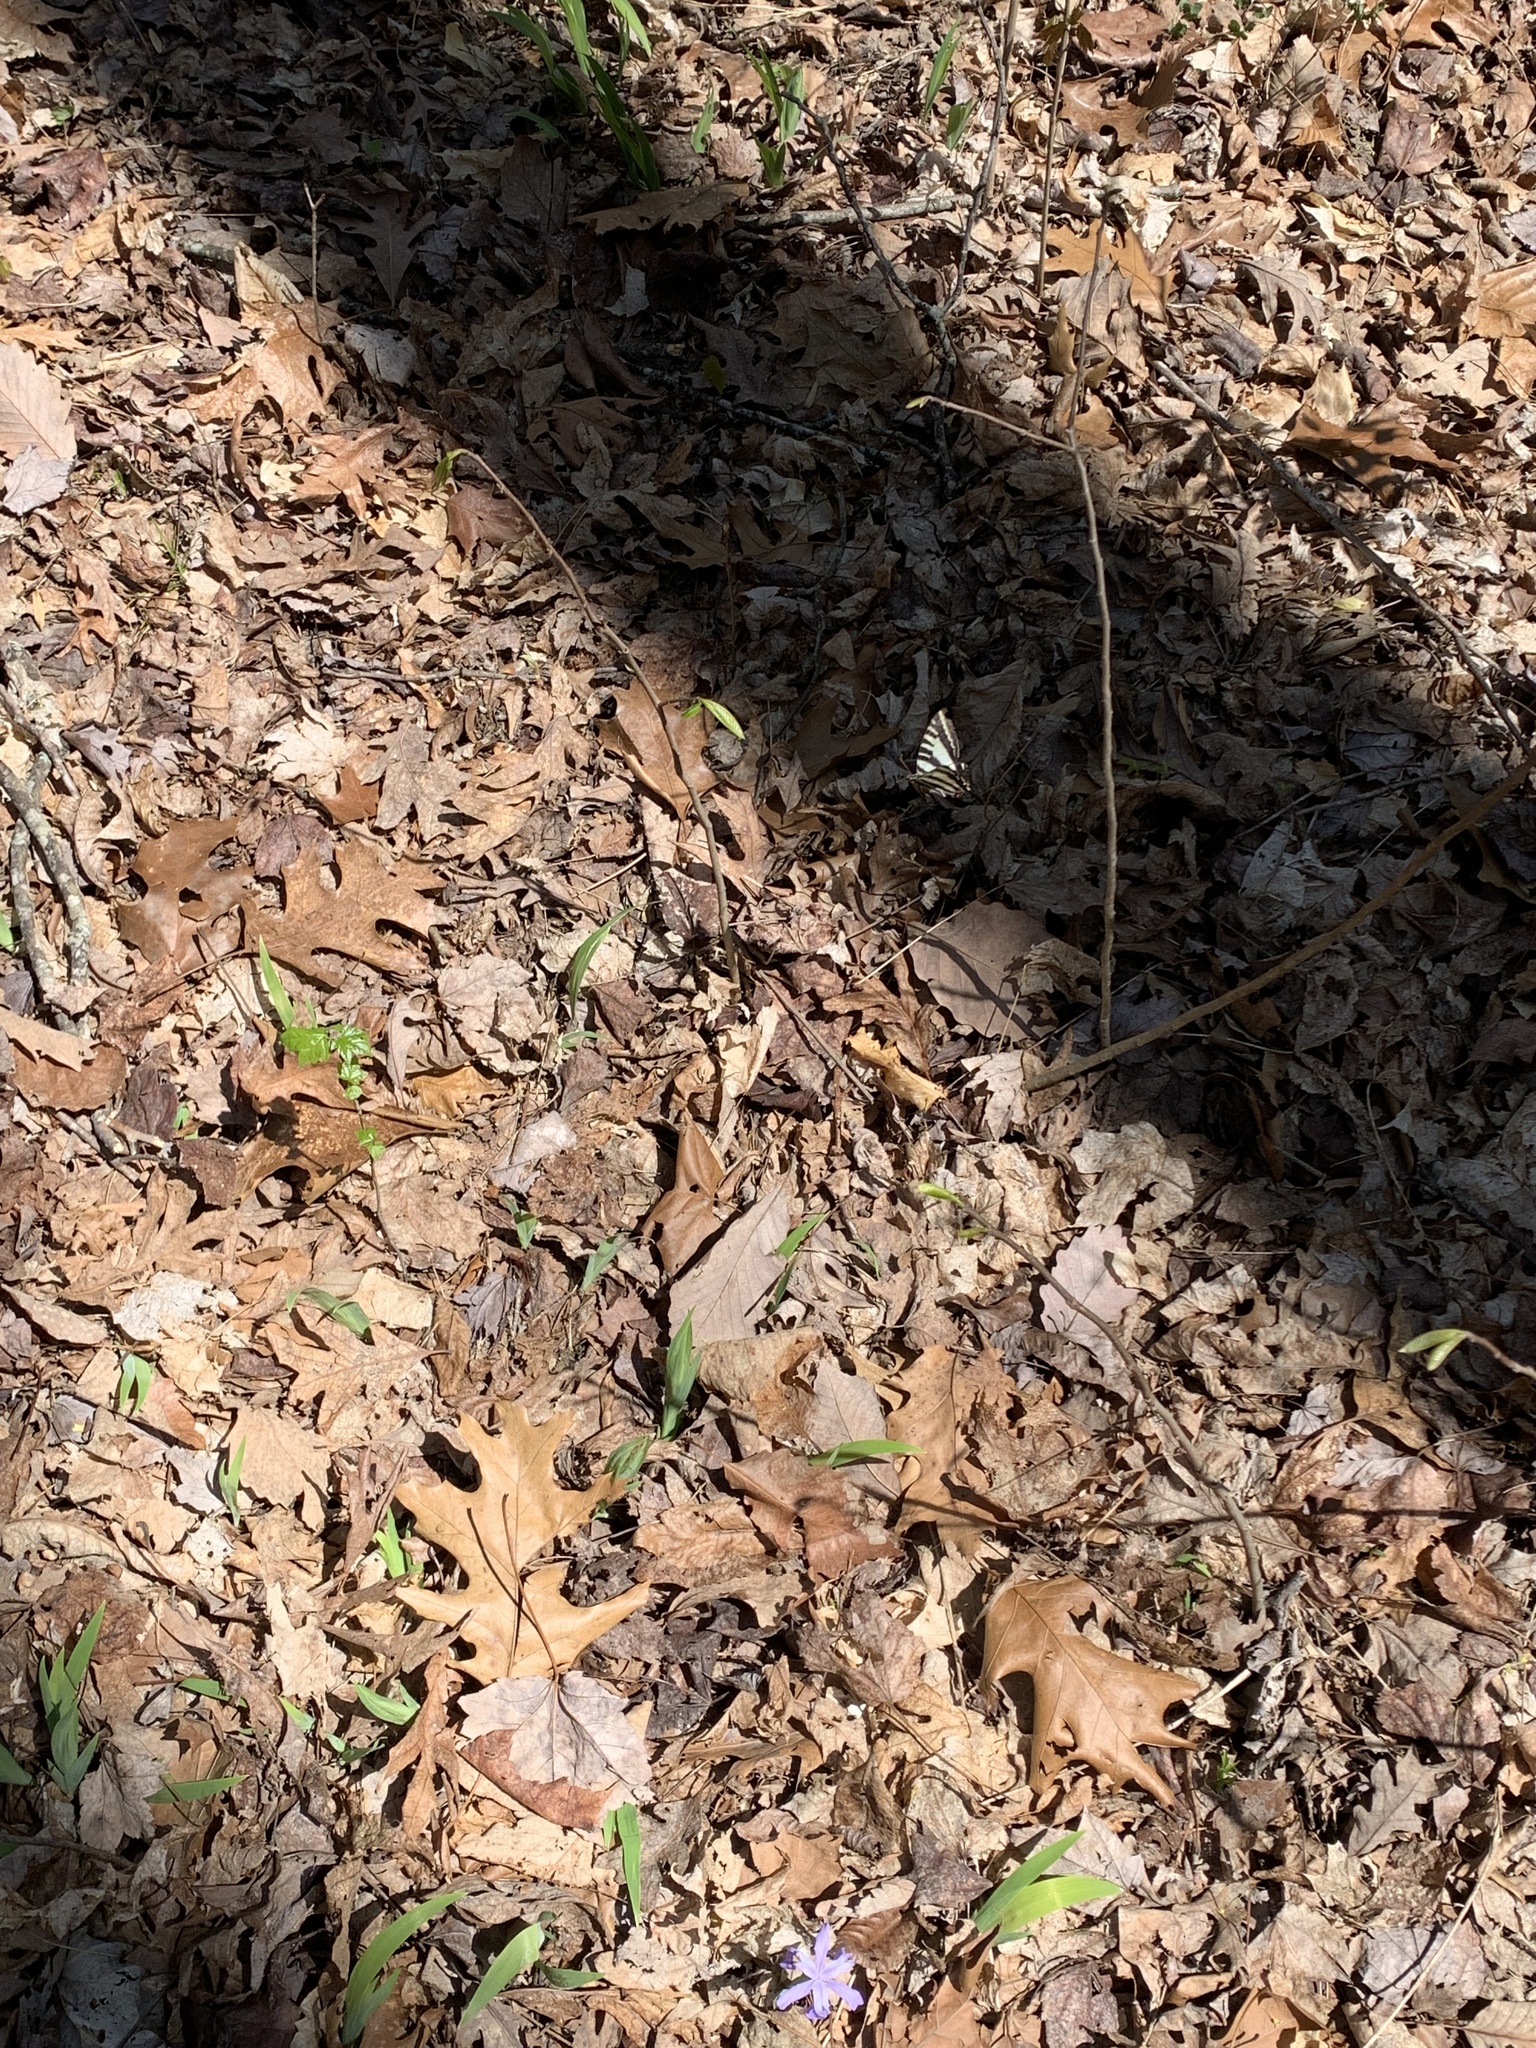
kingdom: Animalia
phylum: Arthropoda
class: Insecta
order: Lepidoptera
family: Papilionidae
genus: Protographium
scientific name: Protographium marcellus
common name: Zebra swallowtail
